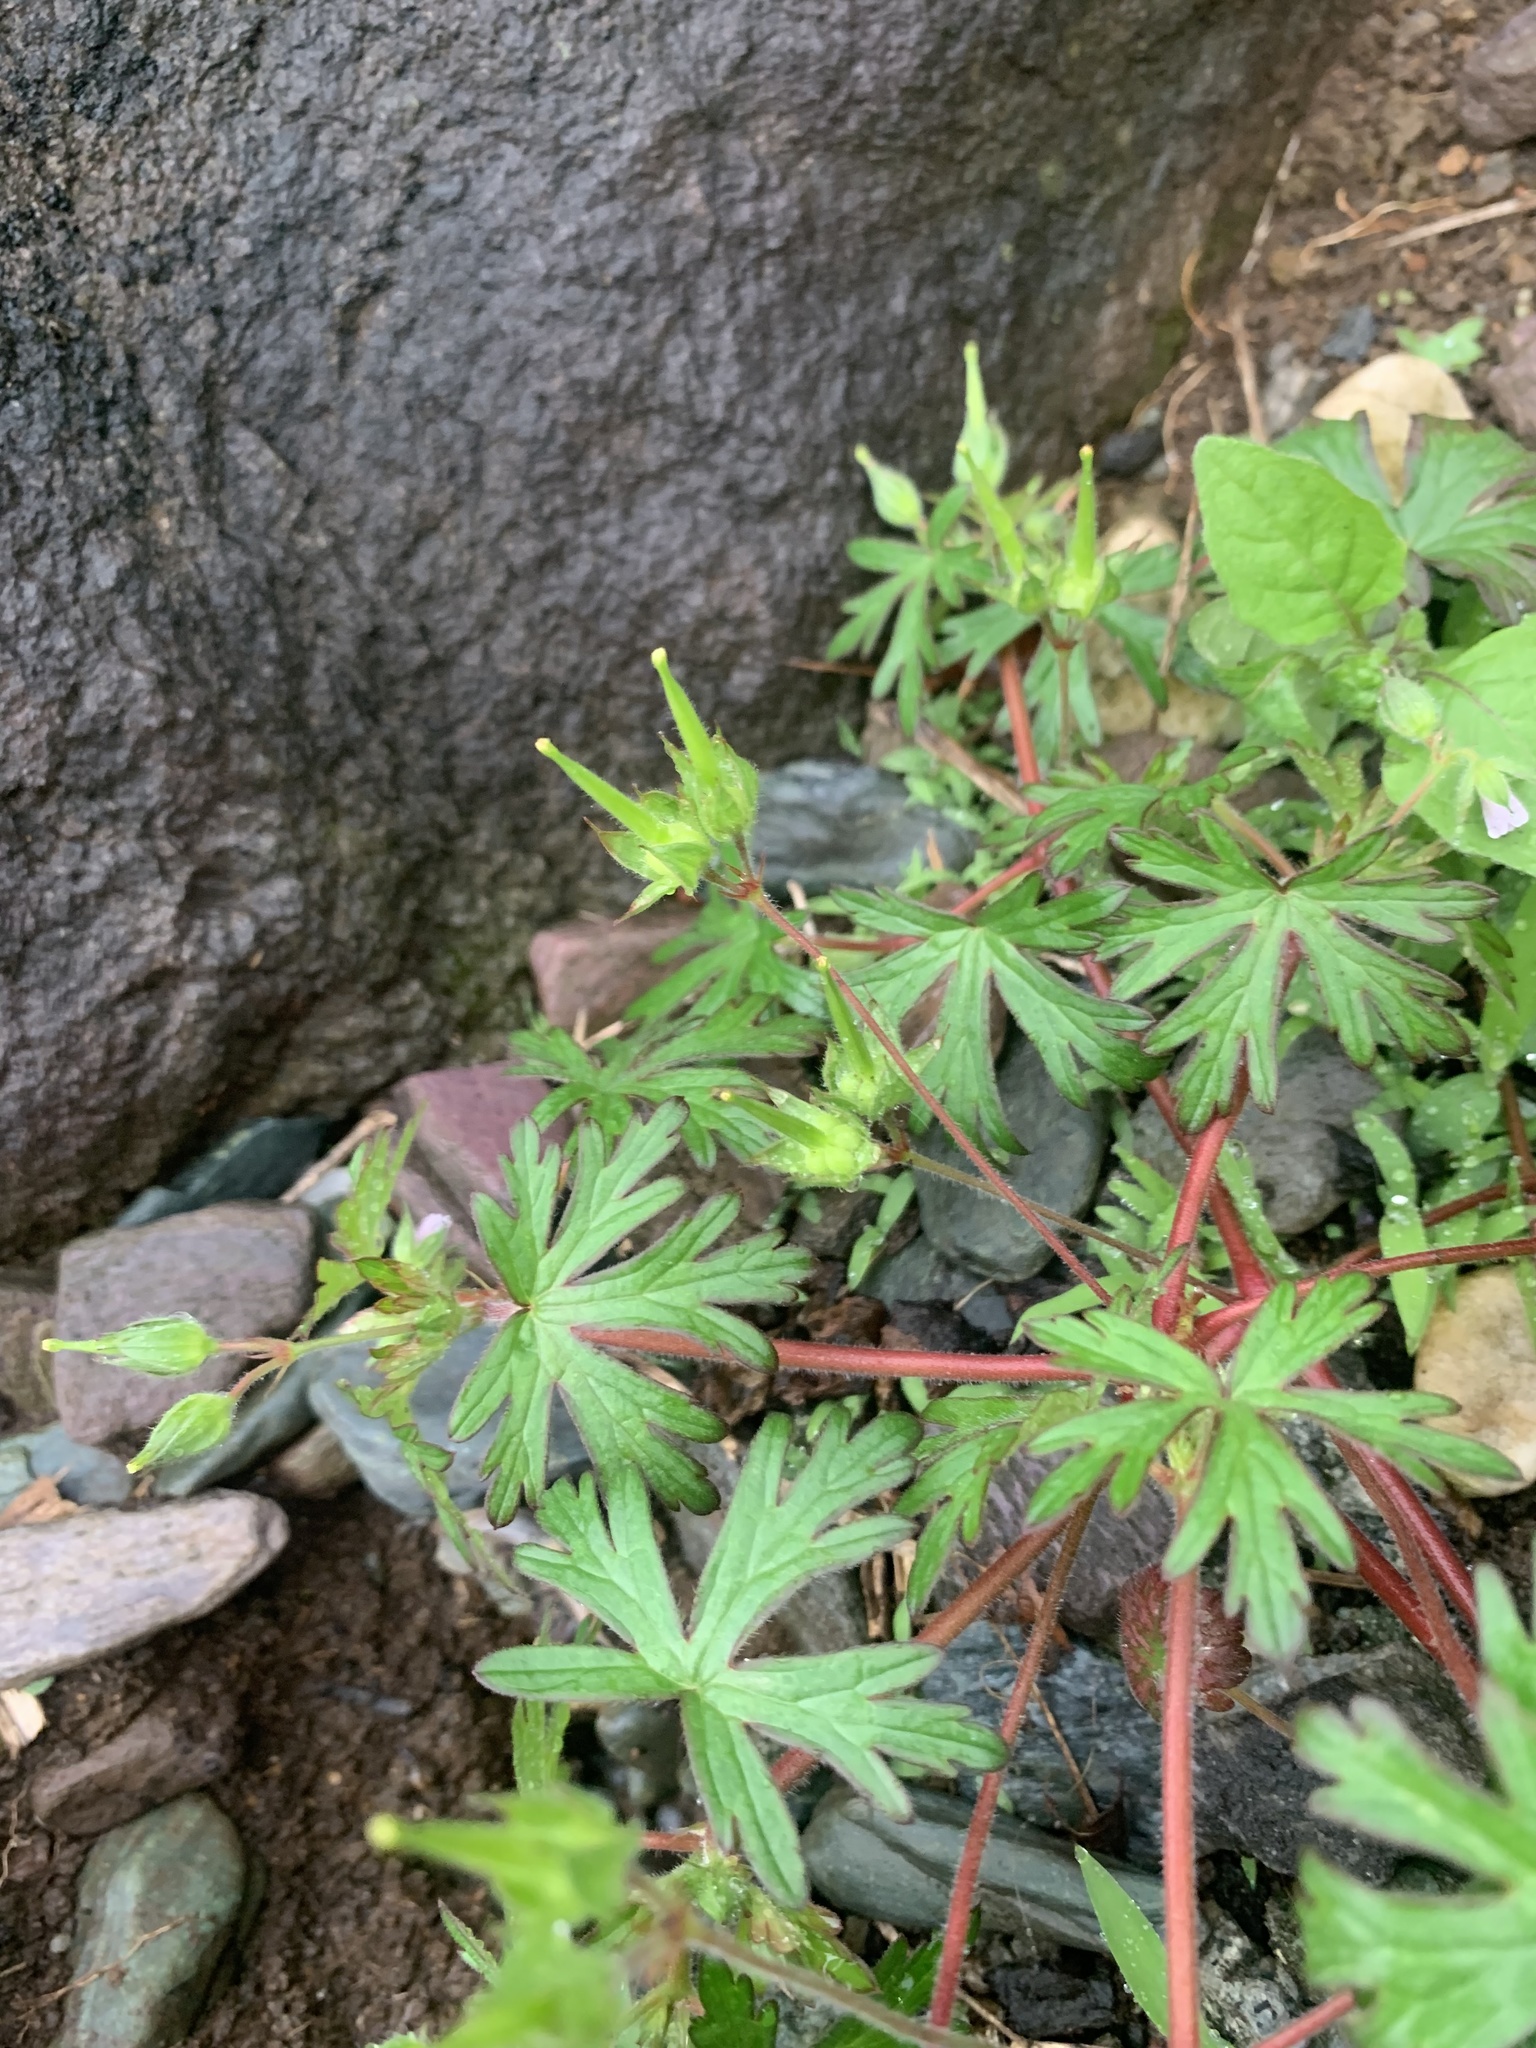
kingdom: Plantae
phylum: Tracheophyta
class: Magnoliopsida
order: Geraniales
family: Geraniaceae
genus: Geranium
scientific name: Geranium carolinianum
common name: Carolina crane's-bill
